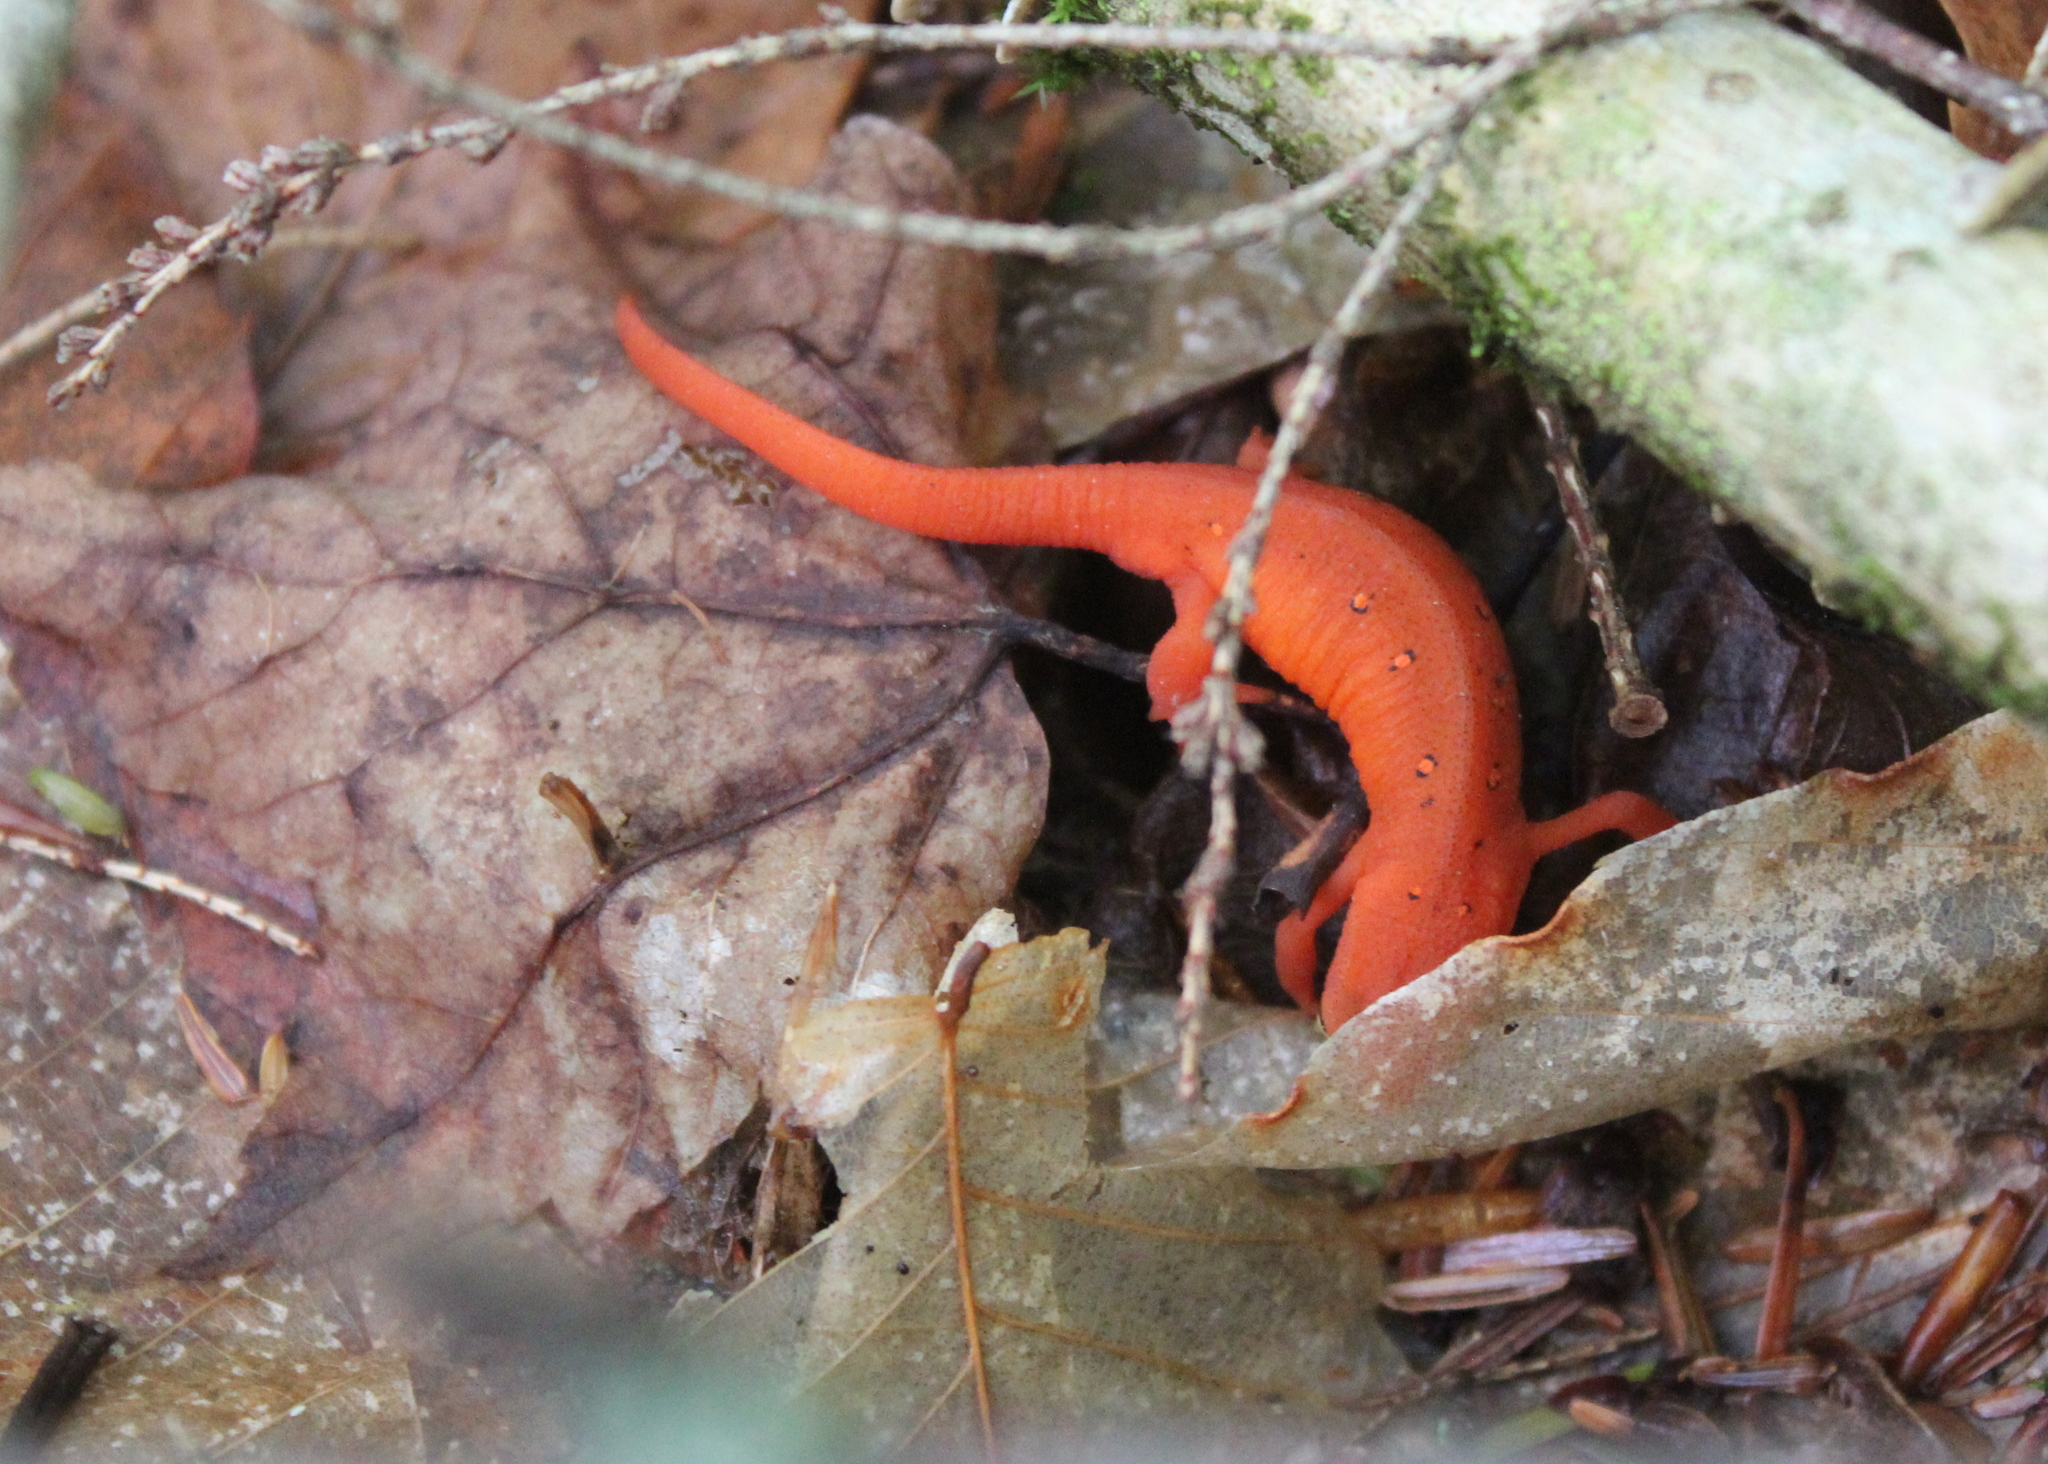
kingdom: Animalia
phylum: Chordata
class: Amphibia
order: Caudata
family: Salamandridae
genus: Notophthalmus
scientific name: Notophthalmus viridescens
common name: Eastern newt
